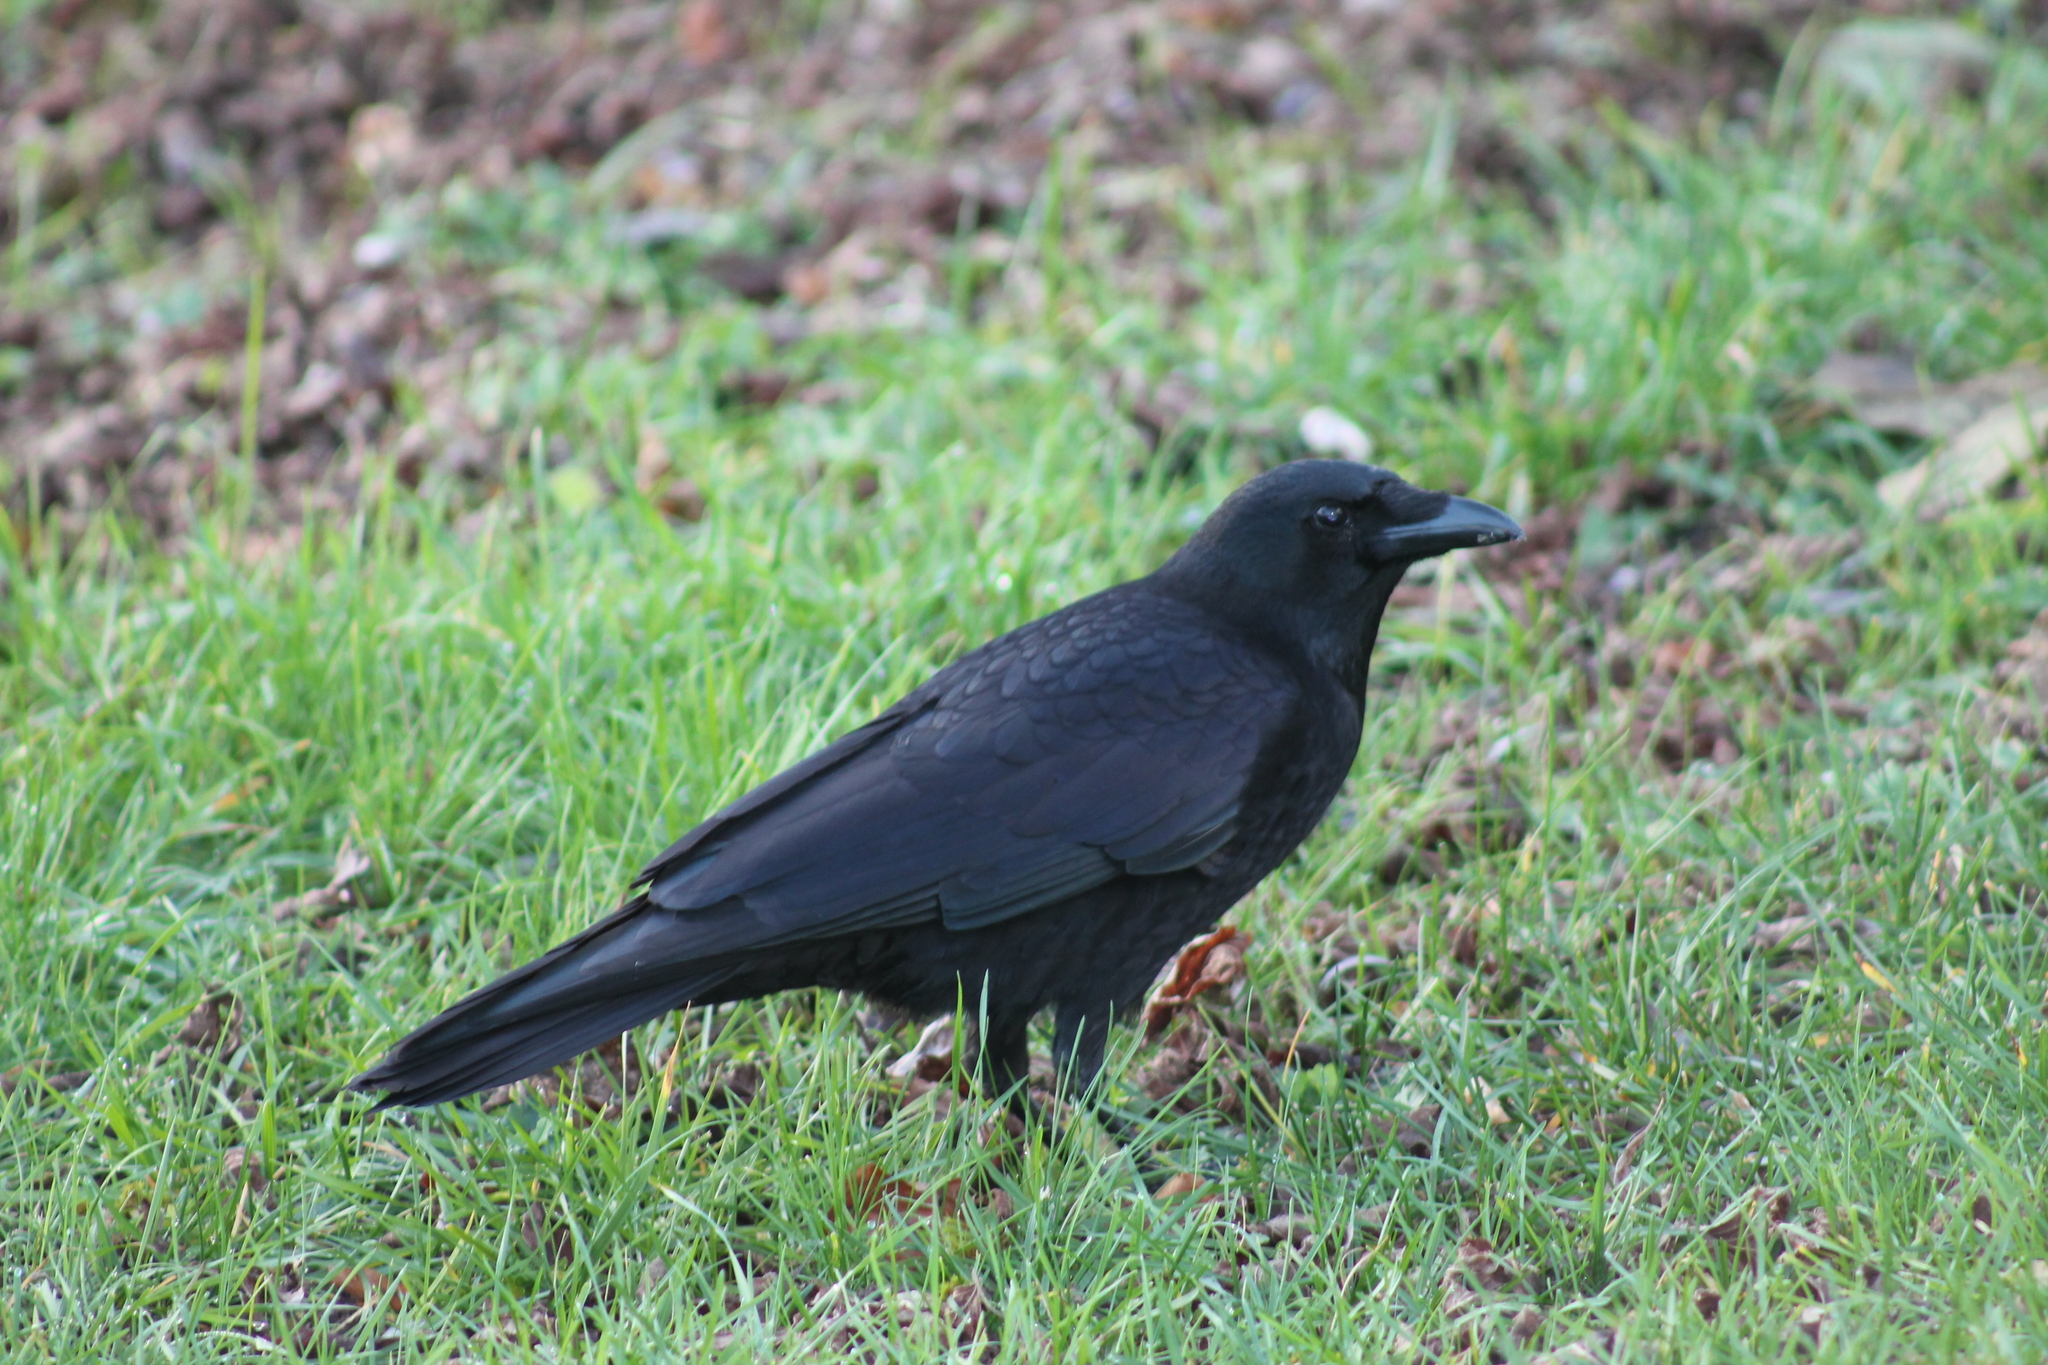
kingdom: Animalia
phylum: Chordata
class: Aves
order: Passeriformes
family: Corvidae
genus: Corvus
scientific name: Corvus corone
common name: Carrion crow
